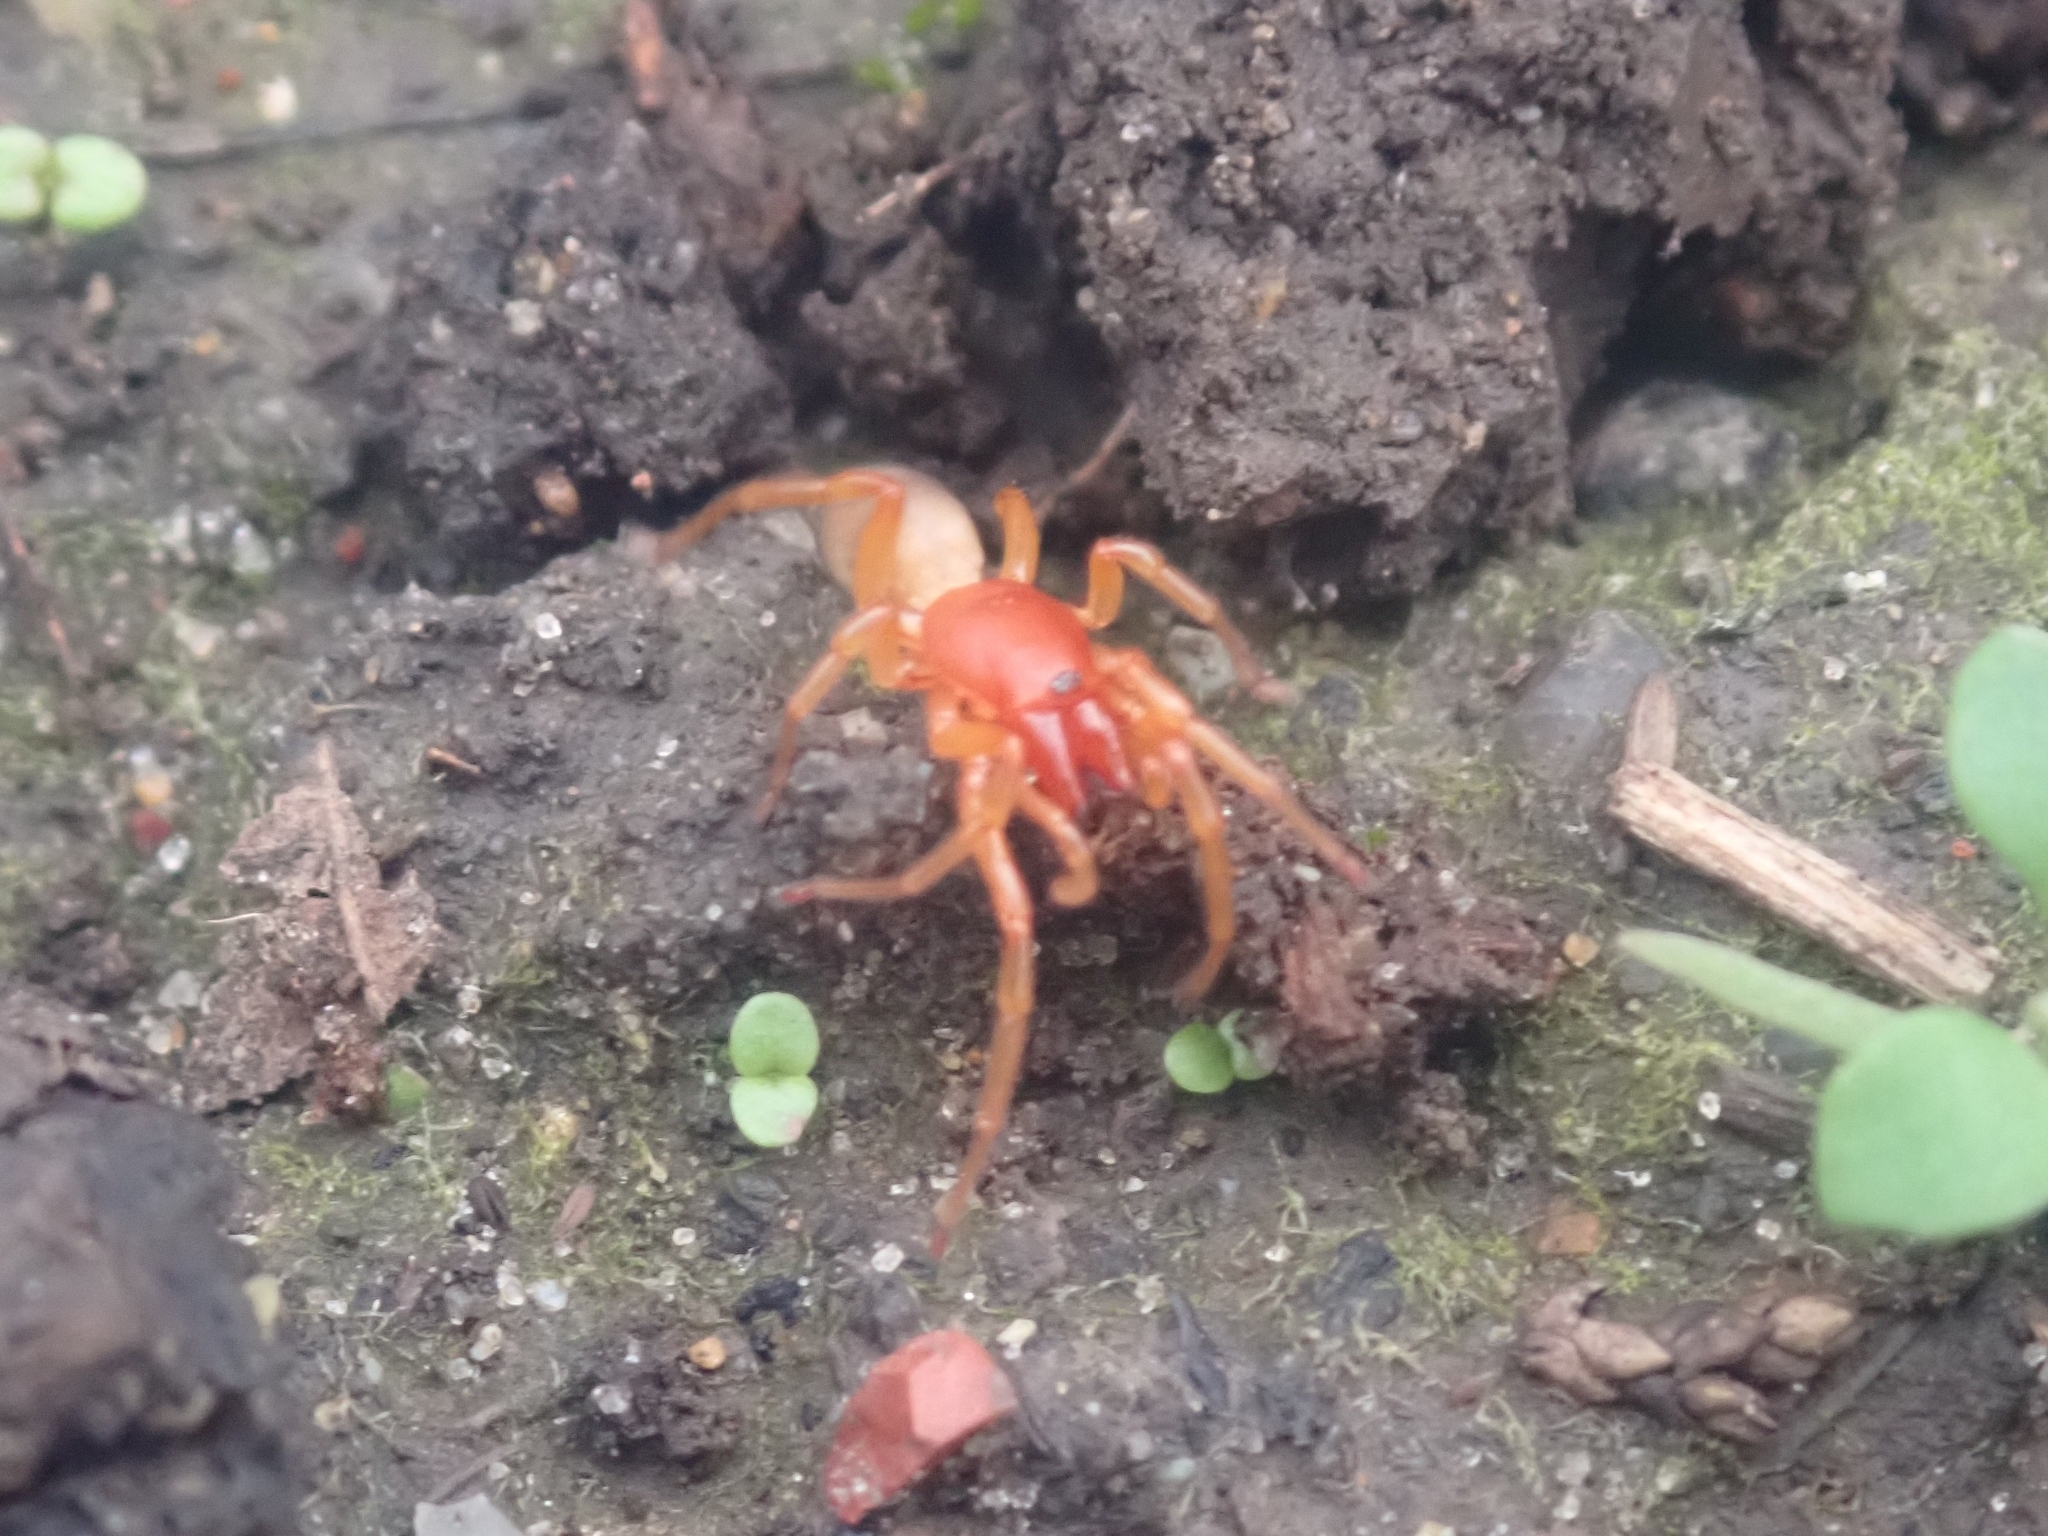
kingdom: Animalia
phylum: Arthropoda
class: Arachnida
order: Araneae
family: Dysderidae
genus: Dysdera
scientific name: Dysdera crocata
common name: Woodlouse spider
